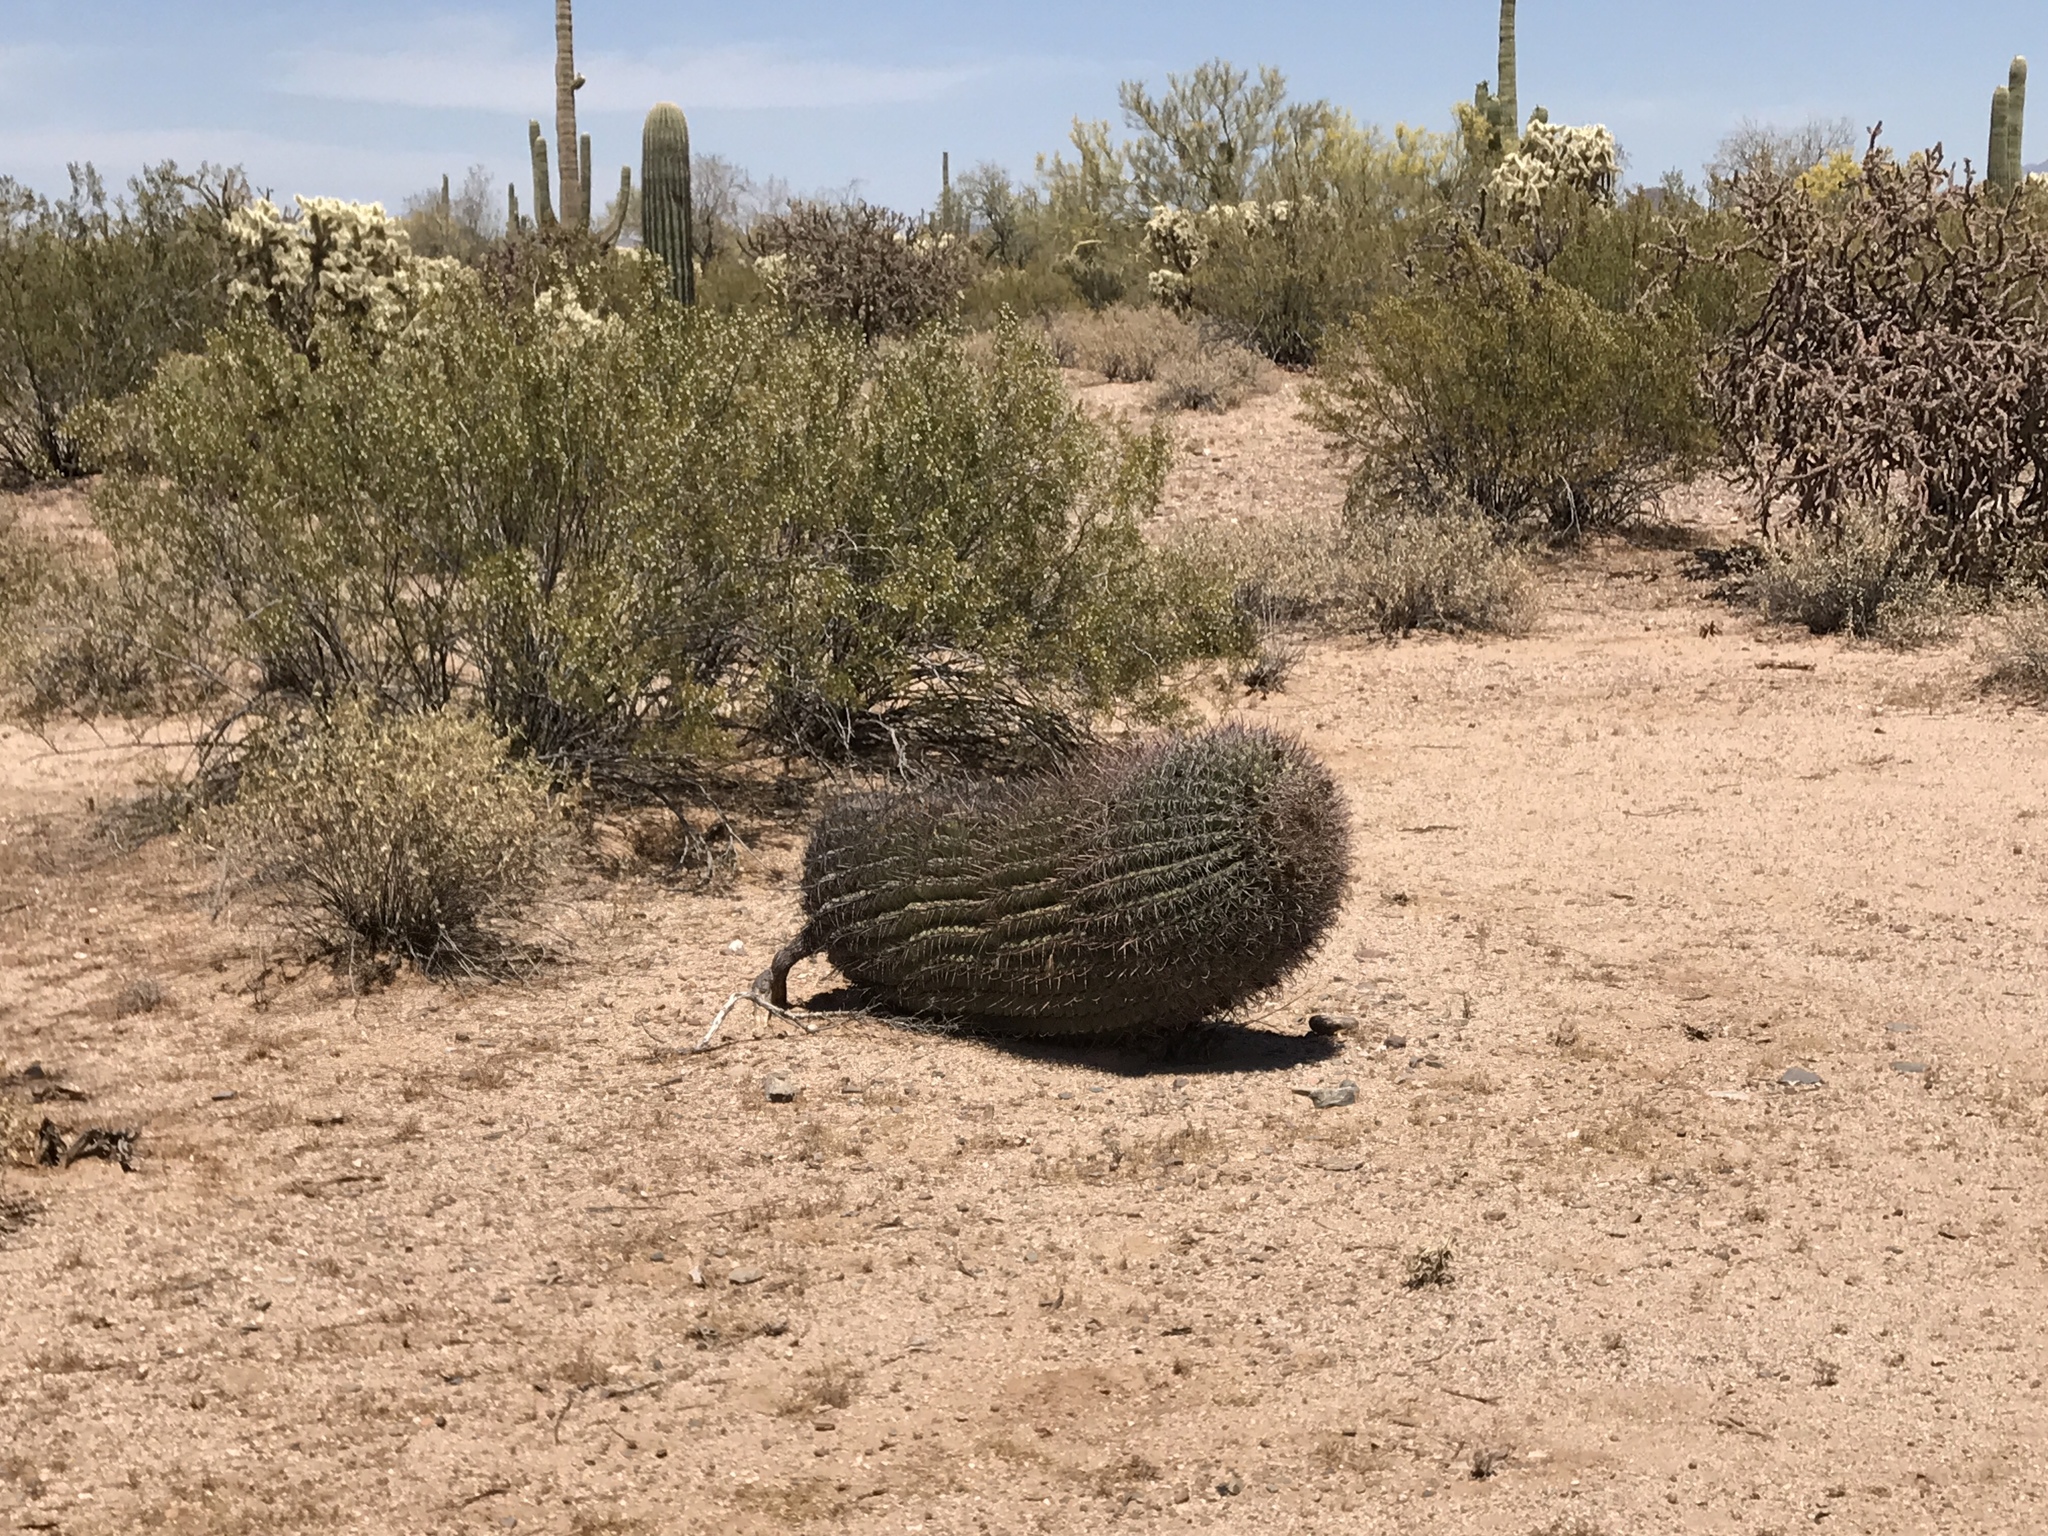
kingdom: Plantae
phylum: Tracheophyta
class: Magnoliopsida
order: Caryophyllales
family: Cactaceae
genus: Ferocactus
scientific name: Ferocactus wislizeni
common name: Candy barrel cactus
